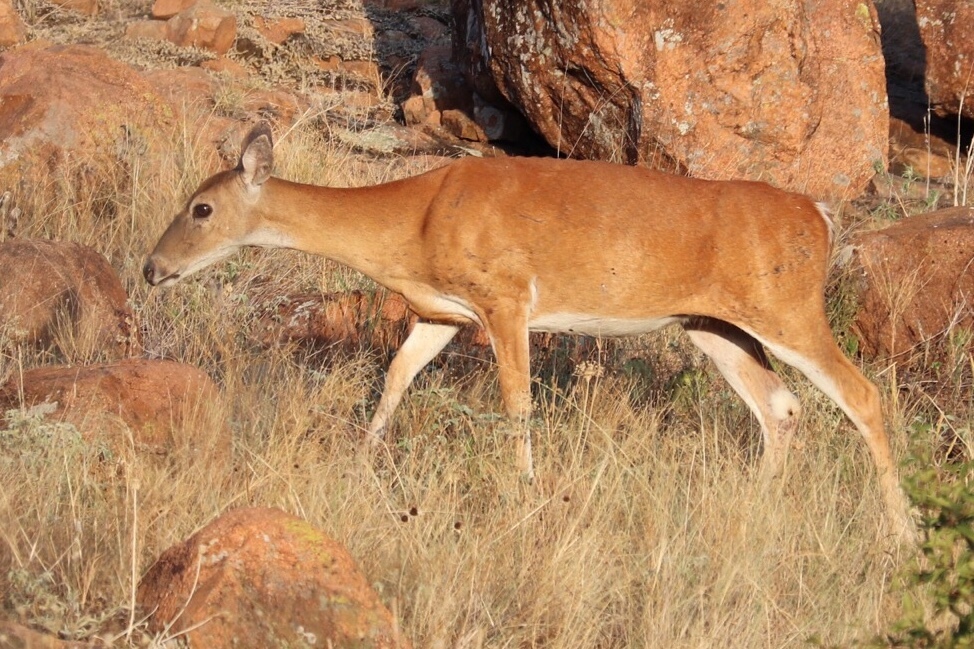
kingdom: Animalia
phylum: Chordata
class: Mammalia
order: Artiodactyla
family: Cervidae
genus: Odocoileus
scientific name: Odocoileus virginianus
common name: White-tailed deer
